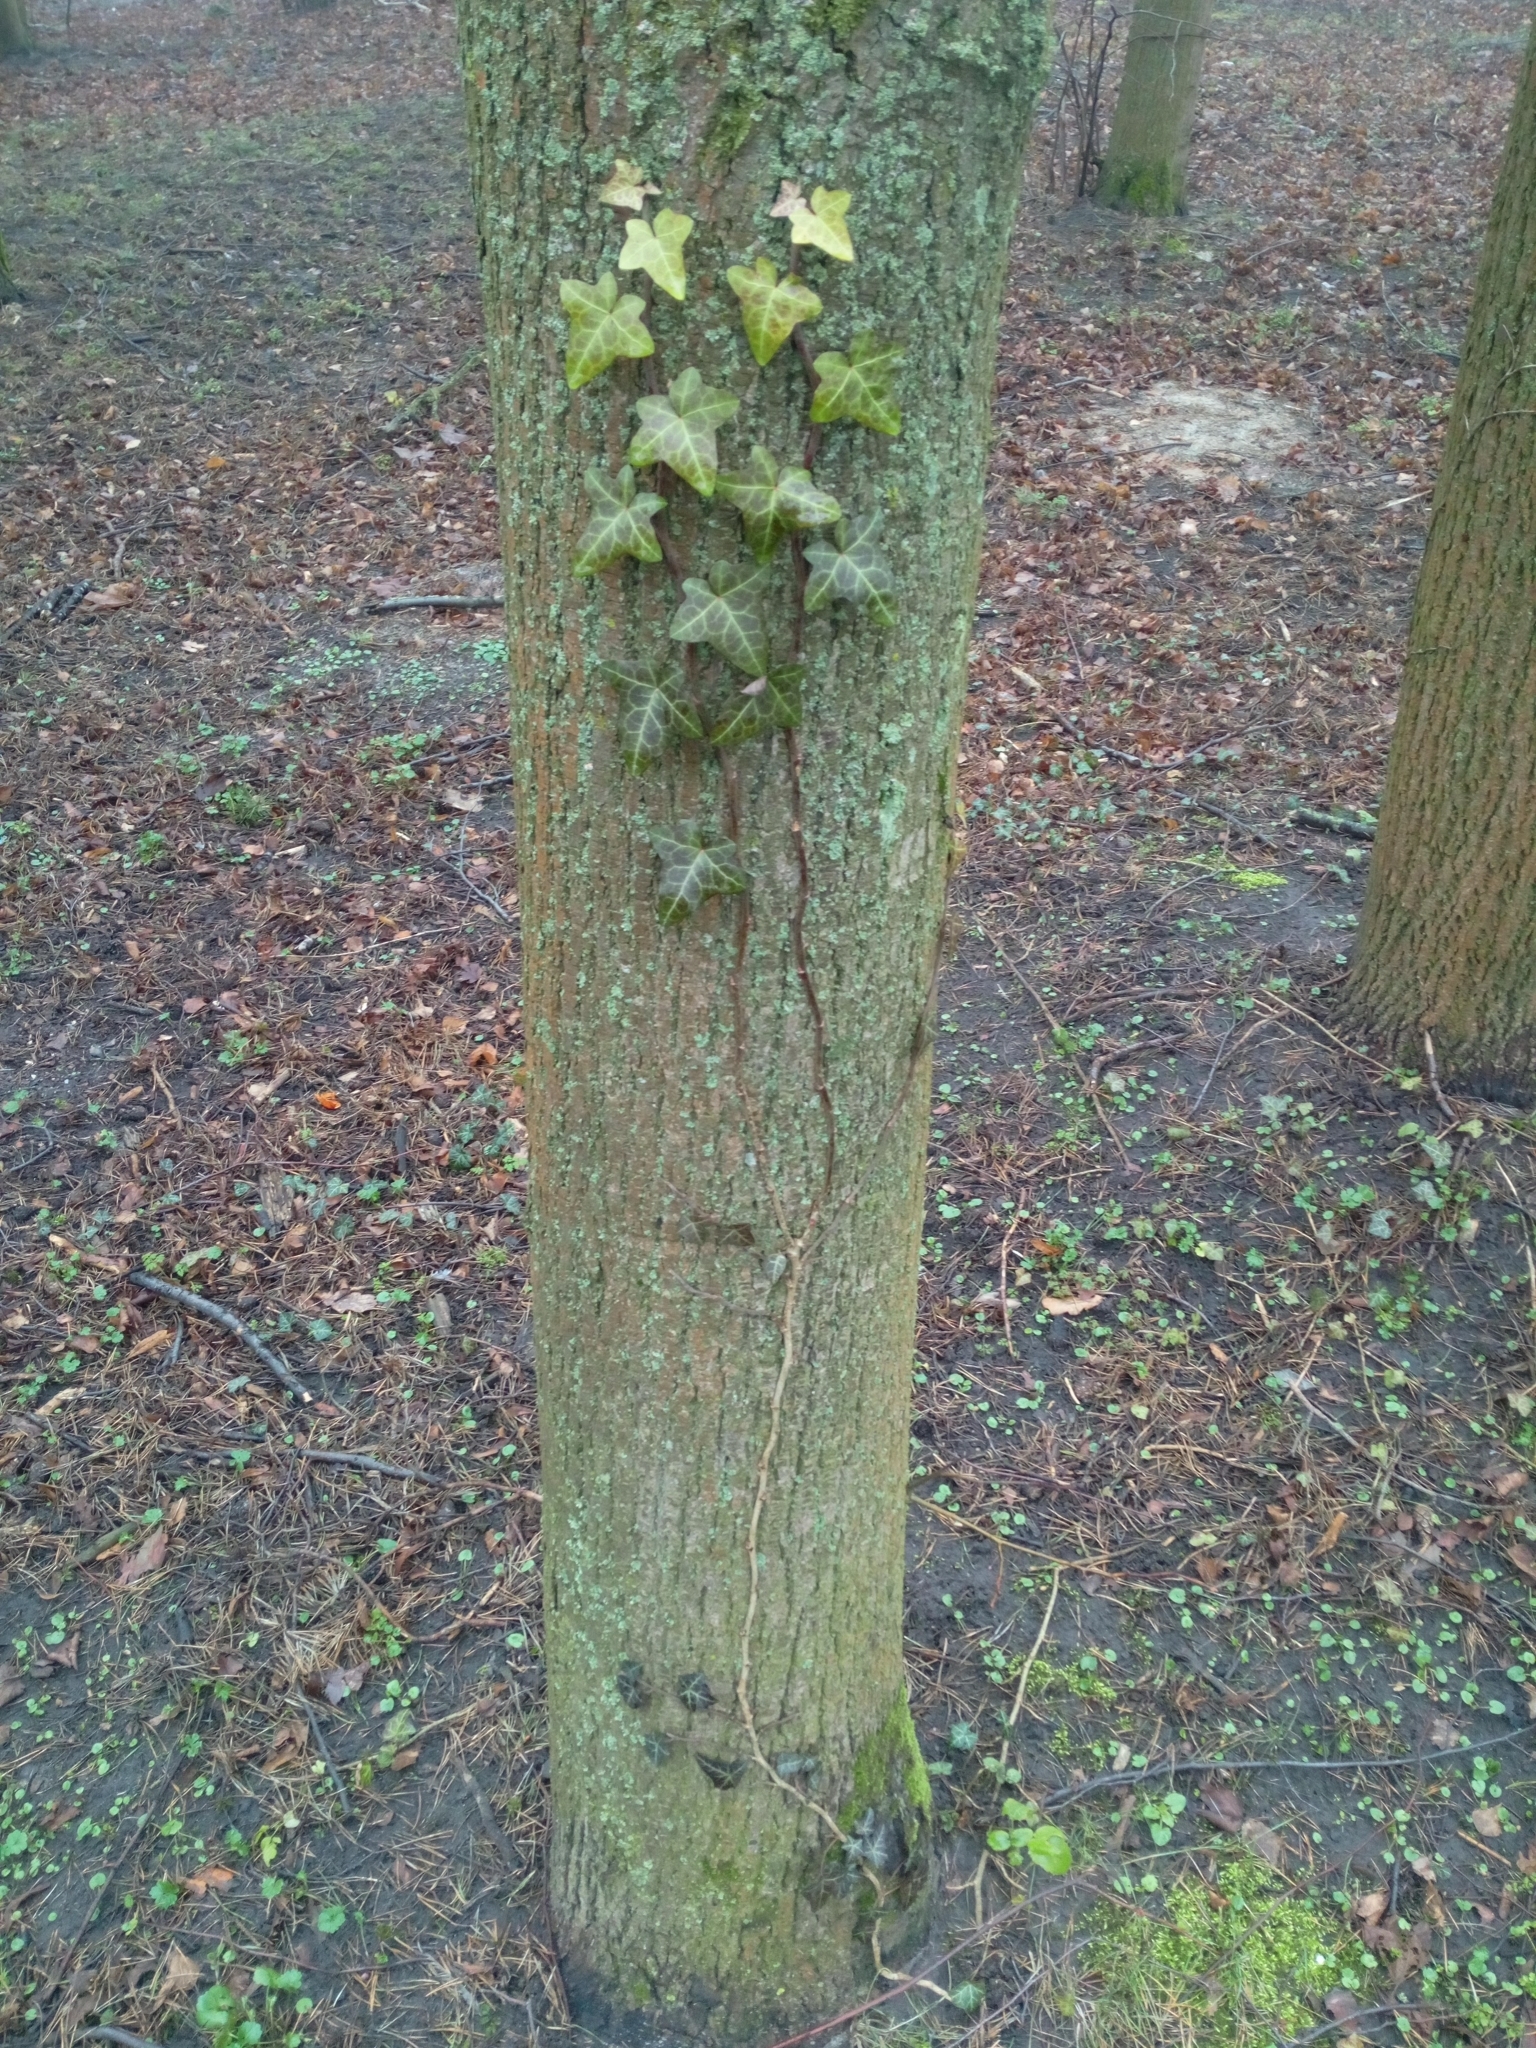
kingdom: Plantae
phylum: Tracheophyta
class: Magnoliopsida
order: Apiales
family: Araliaceae
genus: Hedera
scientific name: Hedera helix
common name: Ivy
